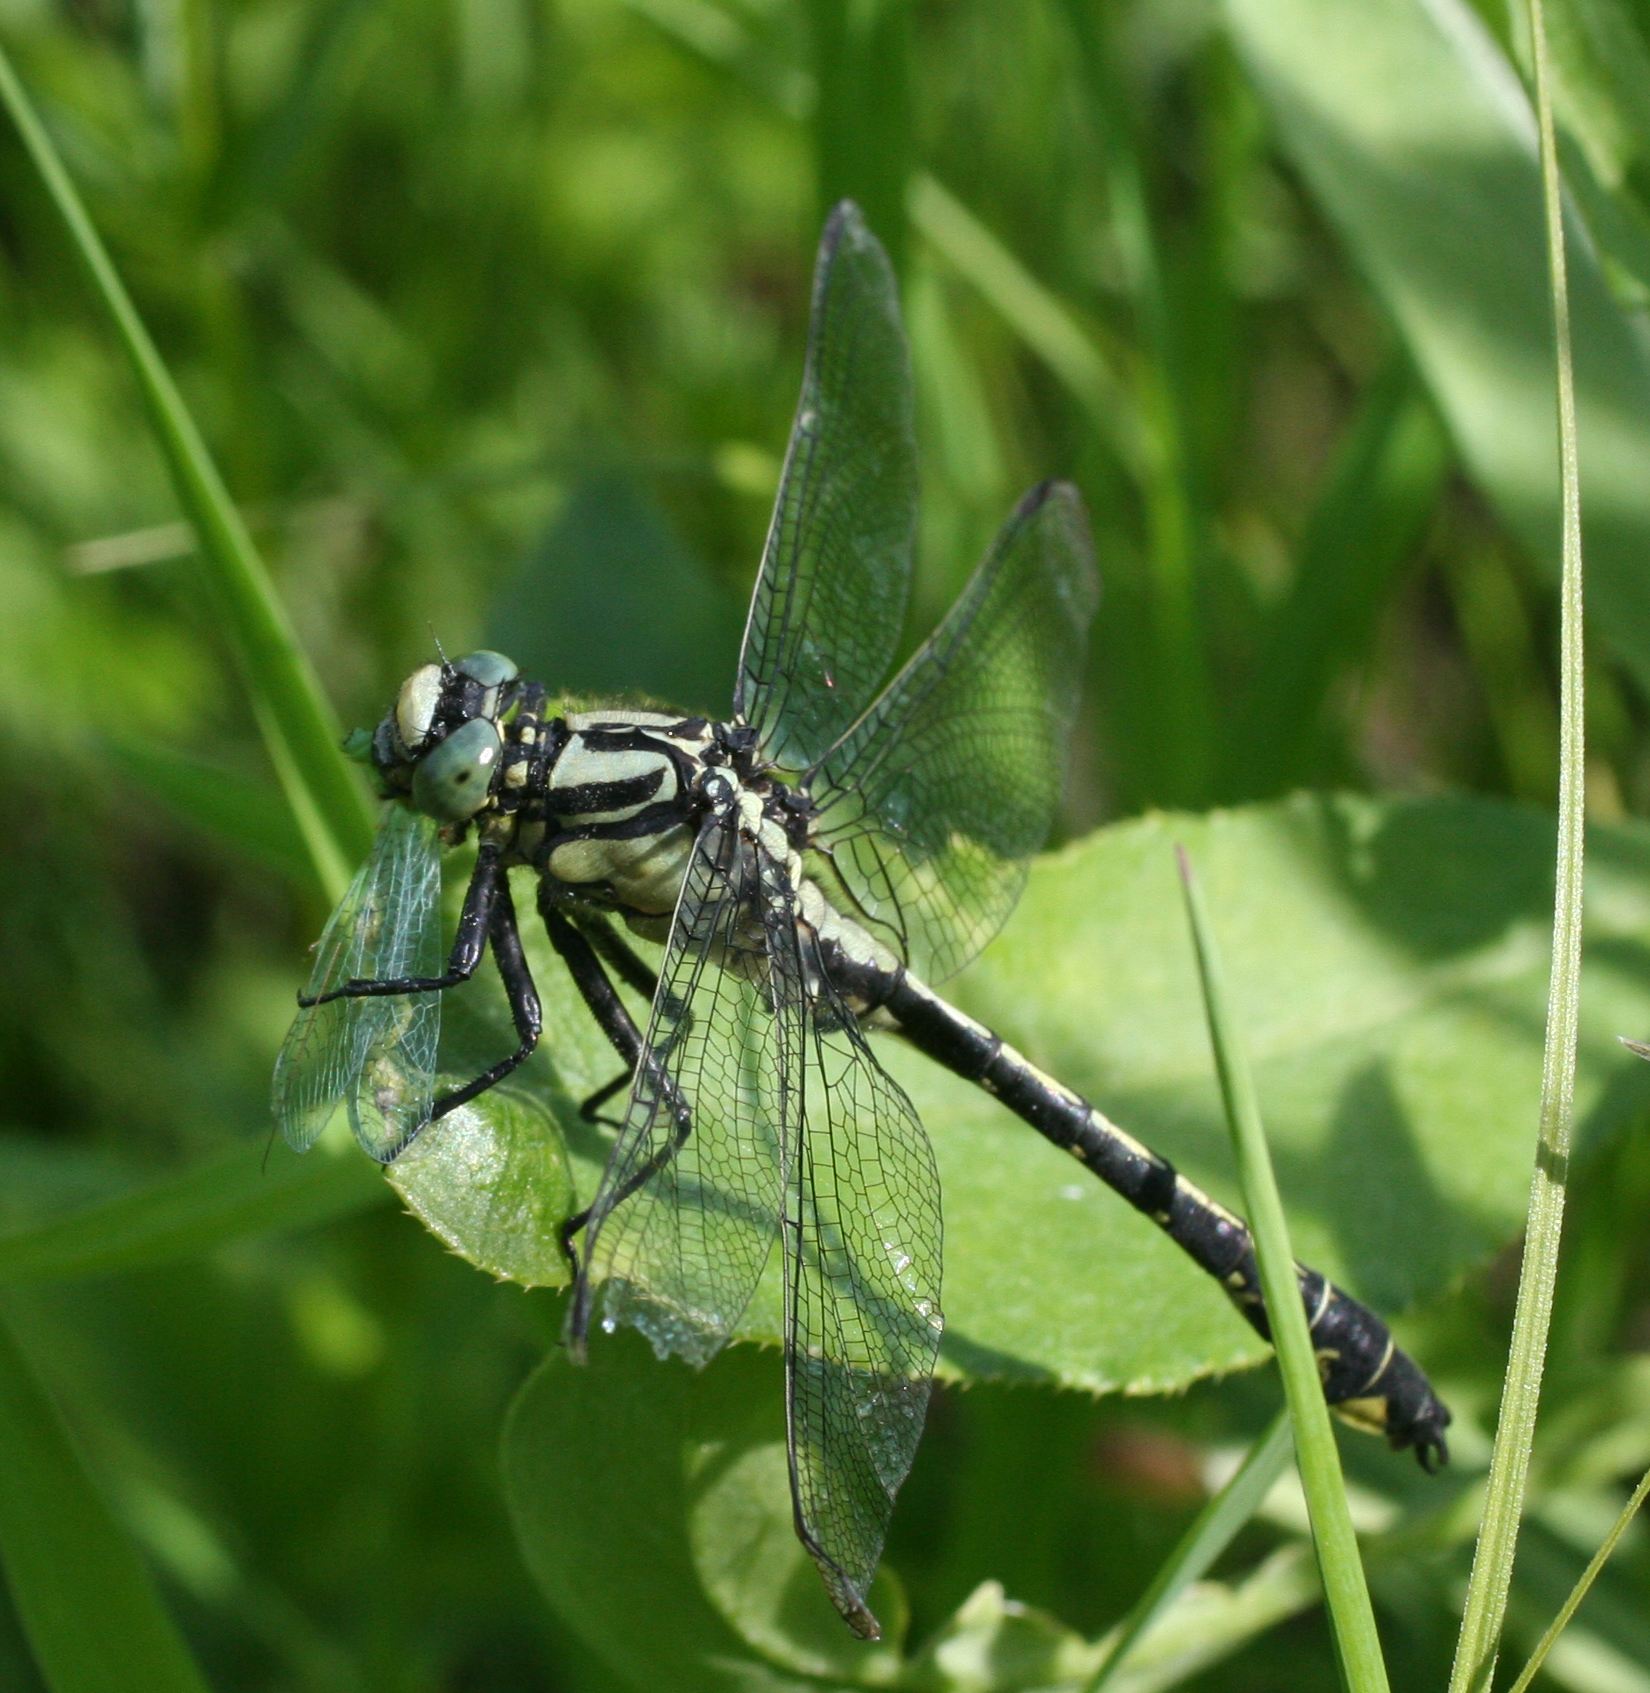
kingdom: Animalia
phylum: Arthropoda
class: Insecta
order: Odonata
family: Gomphidae
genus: Gomphus
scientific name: Gomphus vulgatissimus
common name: Club-tailed dragonfly
